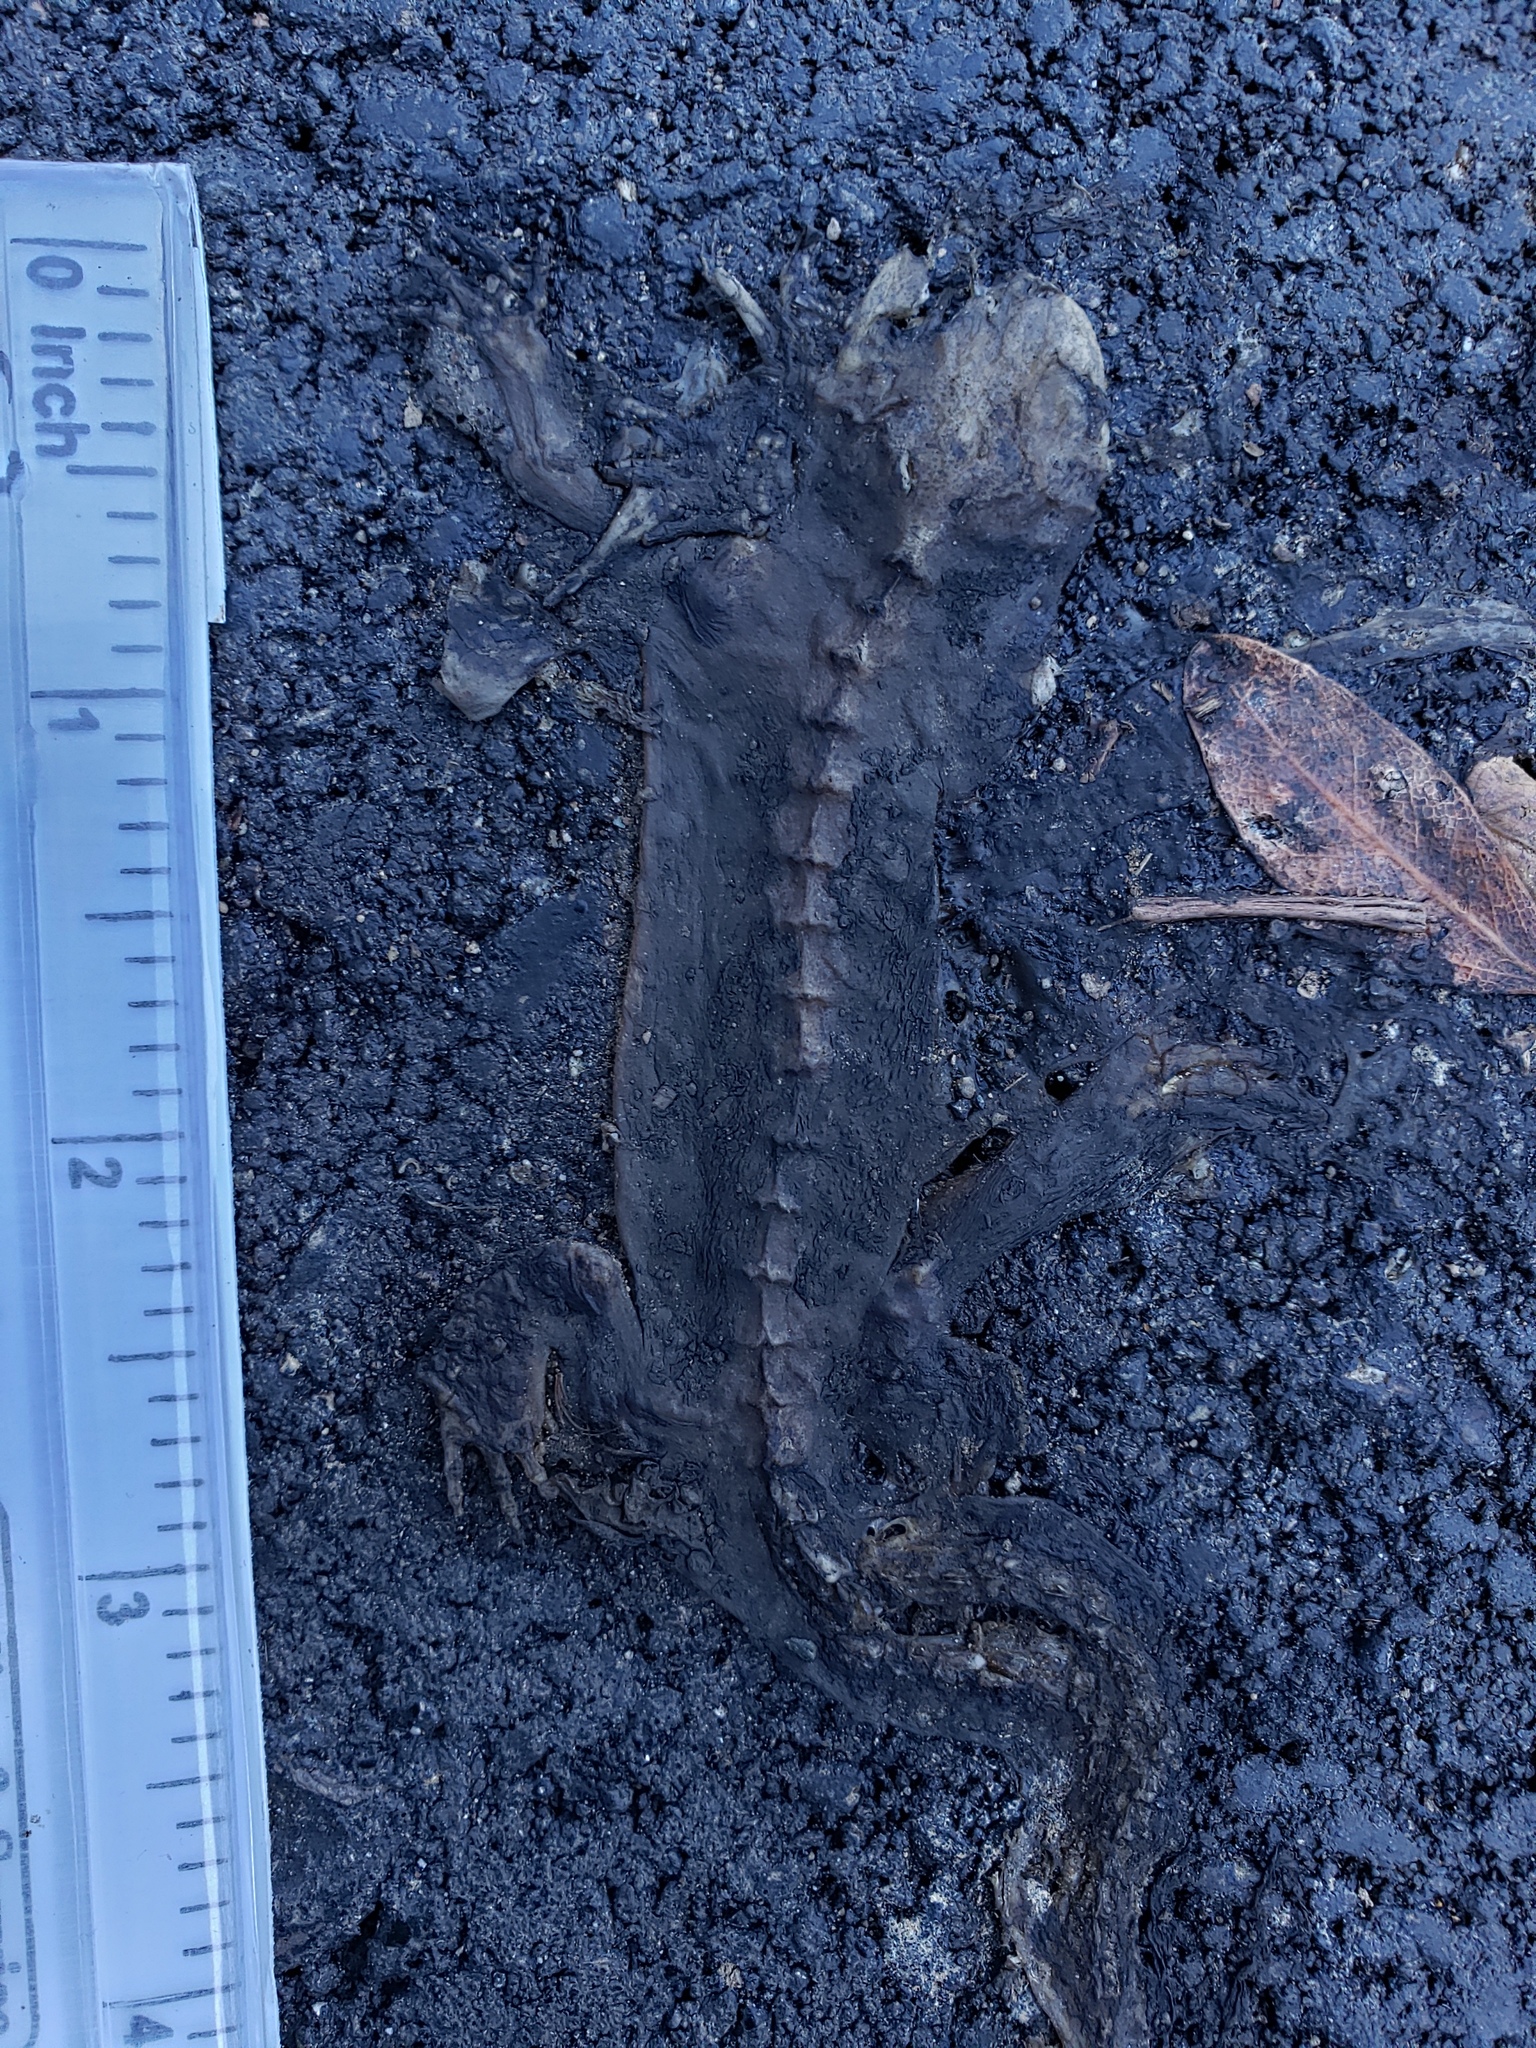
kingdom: Animalia
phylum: Chordata
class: Amphibia
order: Caudata
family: Salamandridae
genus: Taricha
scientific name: Taricha
